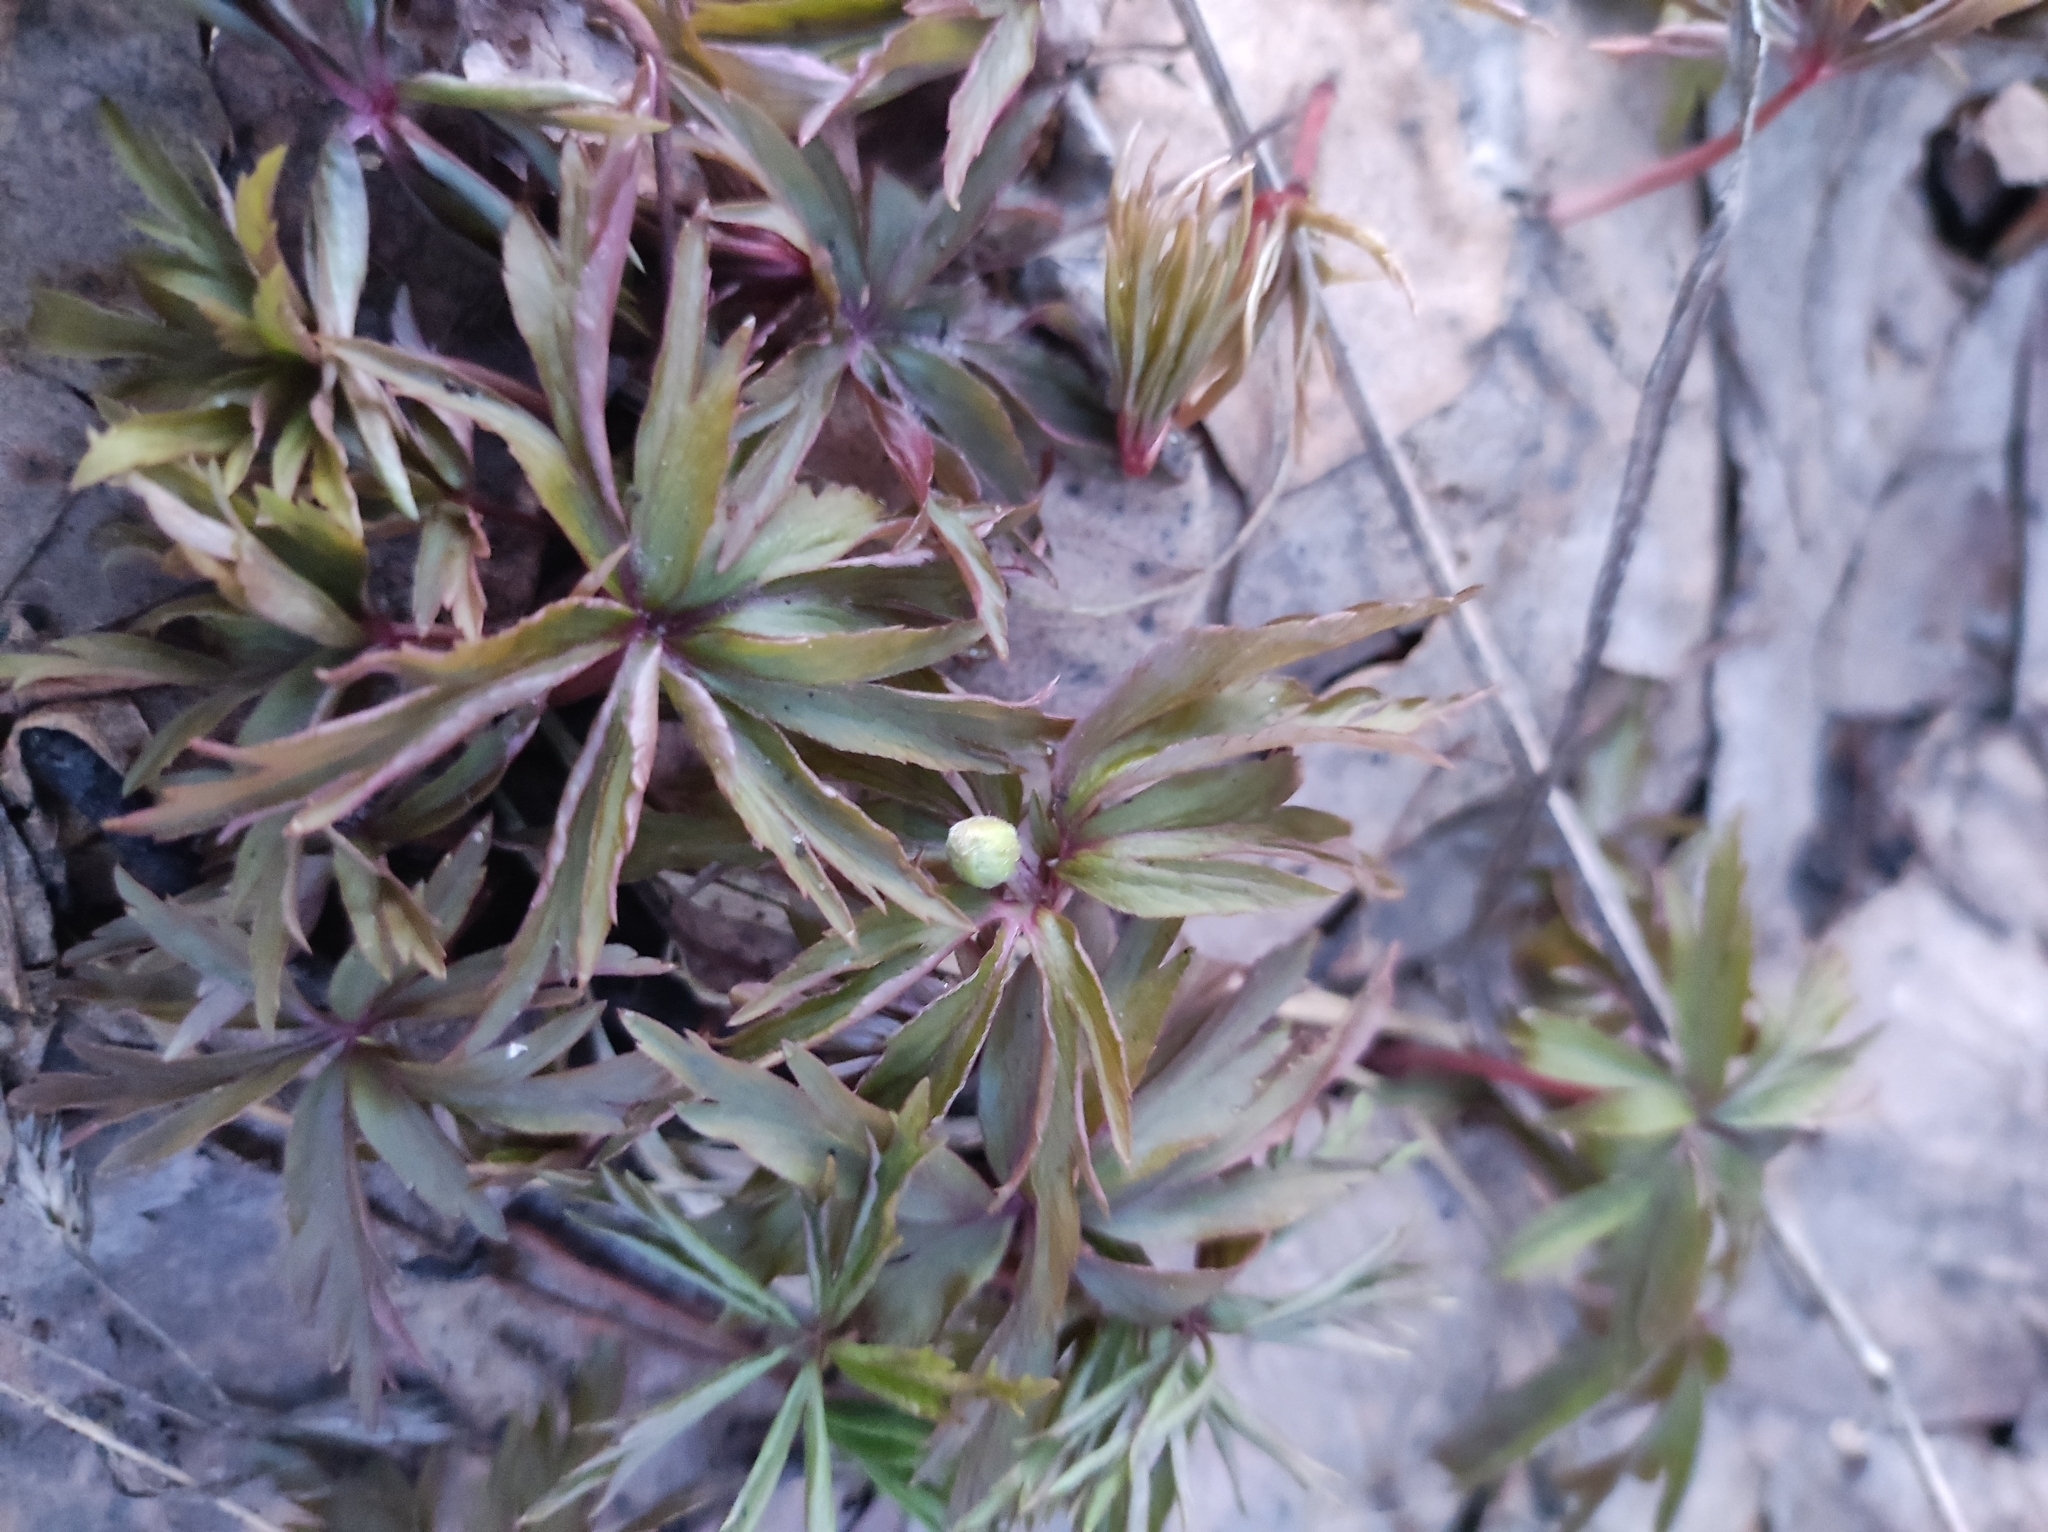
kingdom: Plantae
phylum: Tracheophyta
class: Magnoliopsida
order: Ranunculales
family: Ranunculaceae
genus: Anemone
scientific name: Anemone ranunculoides
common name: Yellow anemone
